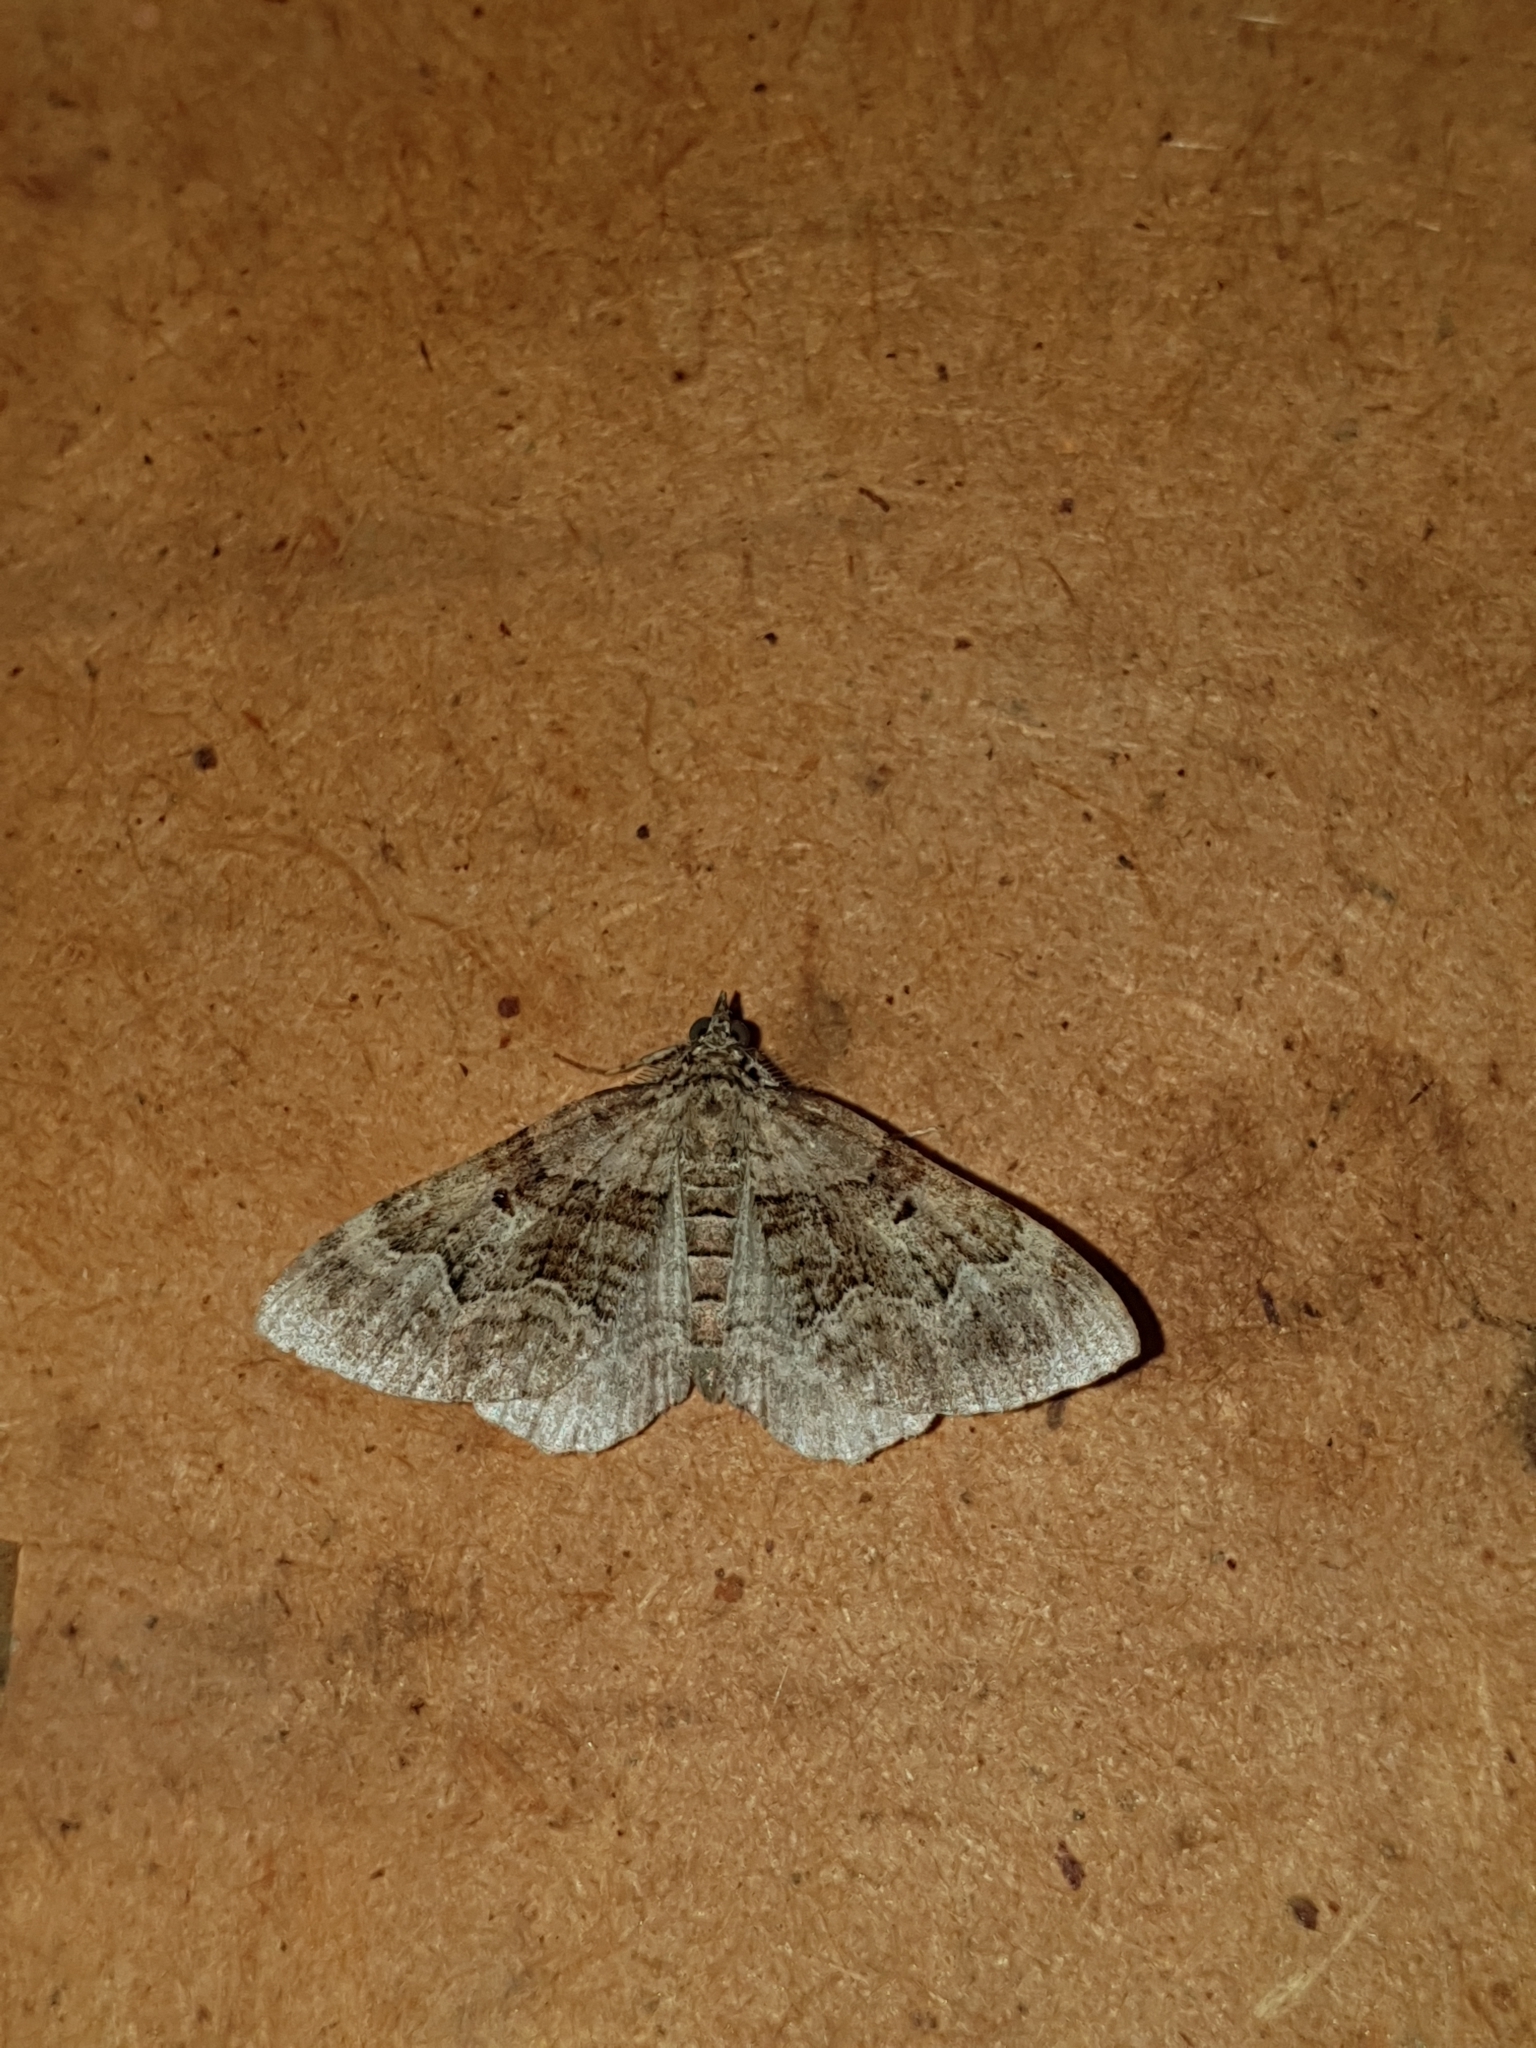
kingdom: Animalia
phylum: Arthropoda
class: Insecta
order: Lepidoptera
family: Geometridae
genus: Xanthorhoe
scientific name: Xanthorhoe quadrifasiata
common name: Large twin-spot carpet
